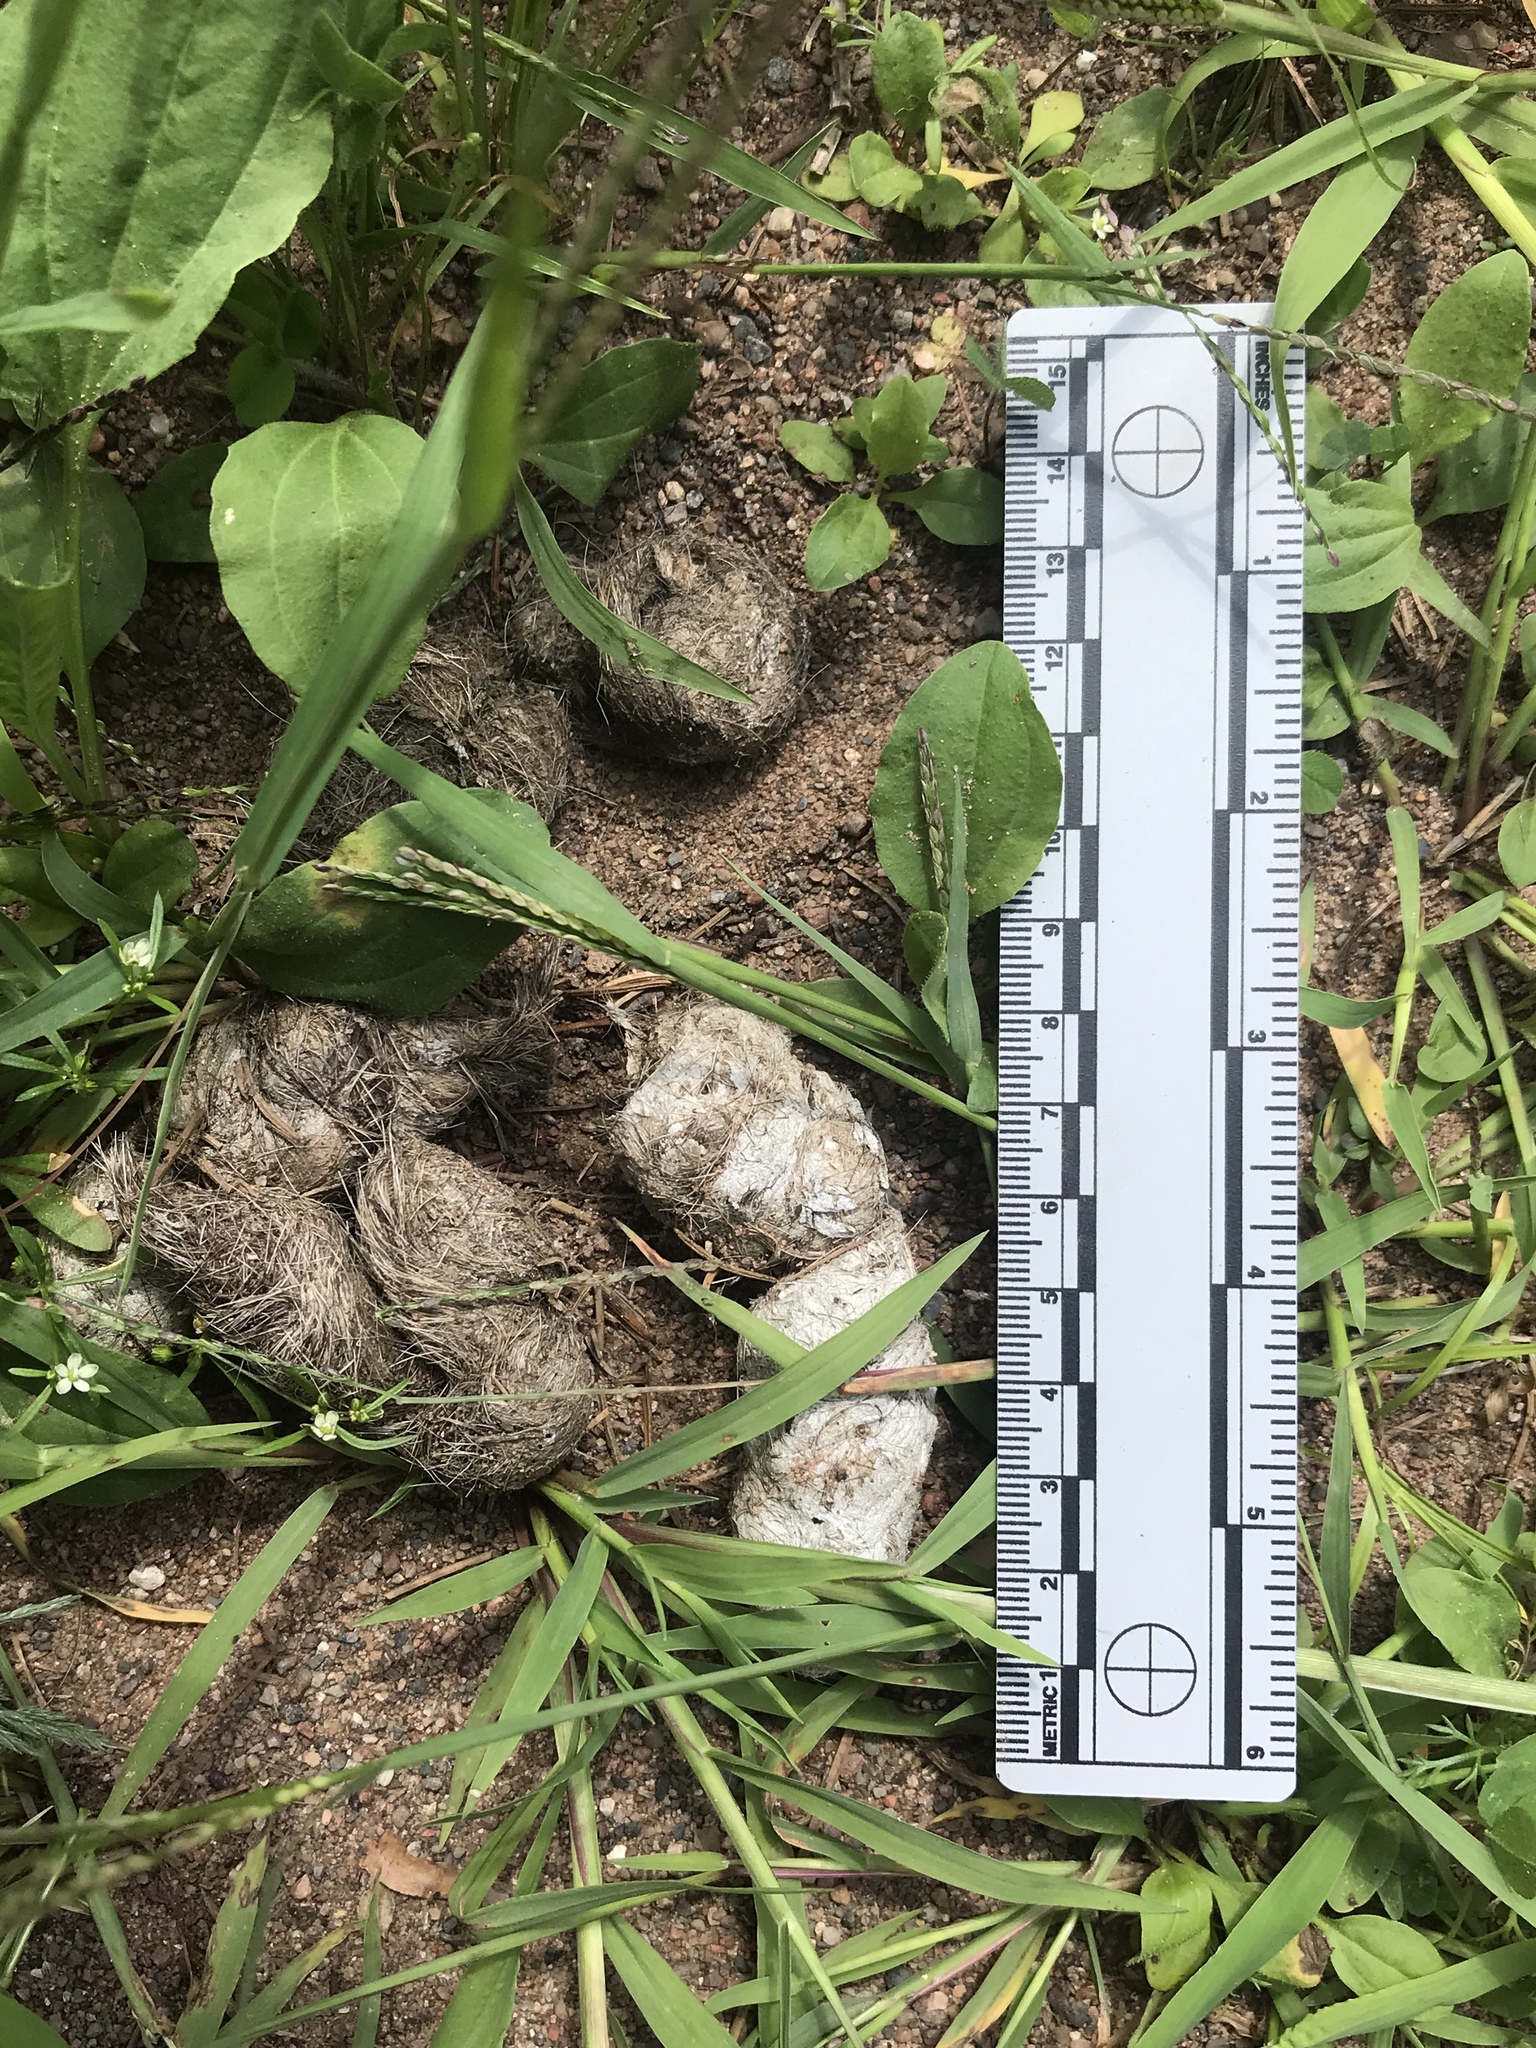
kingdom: Animalia
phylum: Chordata
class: Mammalia
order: Carnivora
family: Canidae
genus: Canis
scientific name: Canis latrans
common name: Coyote
